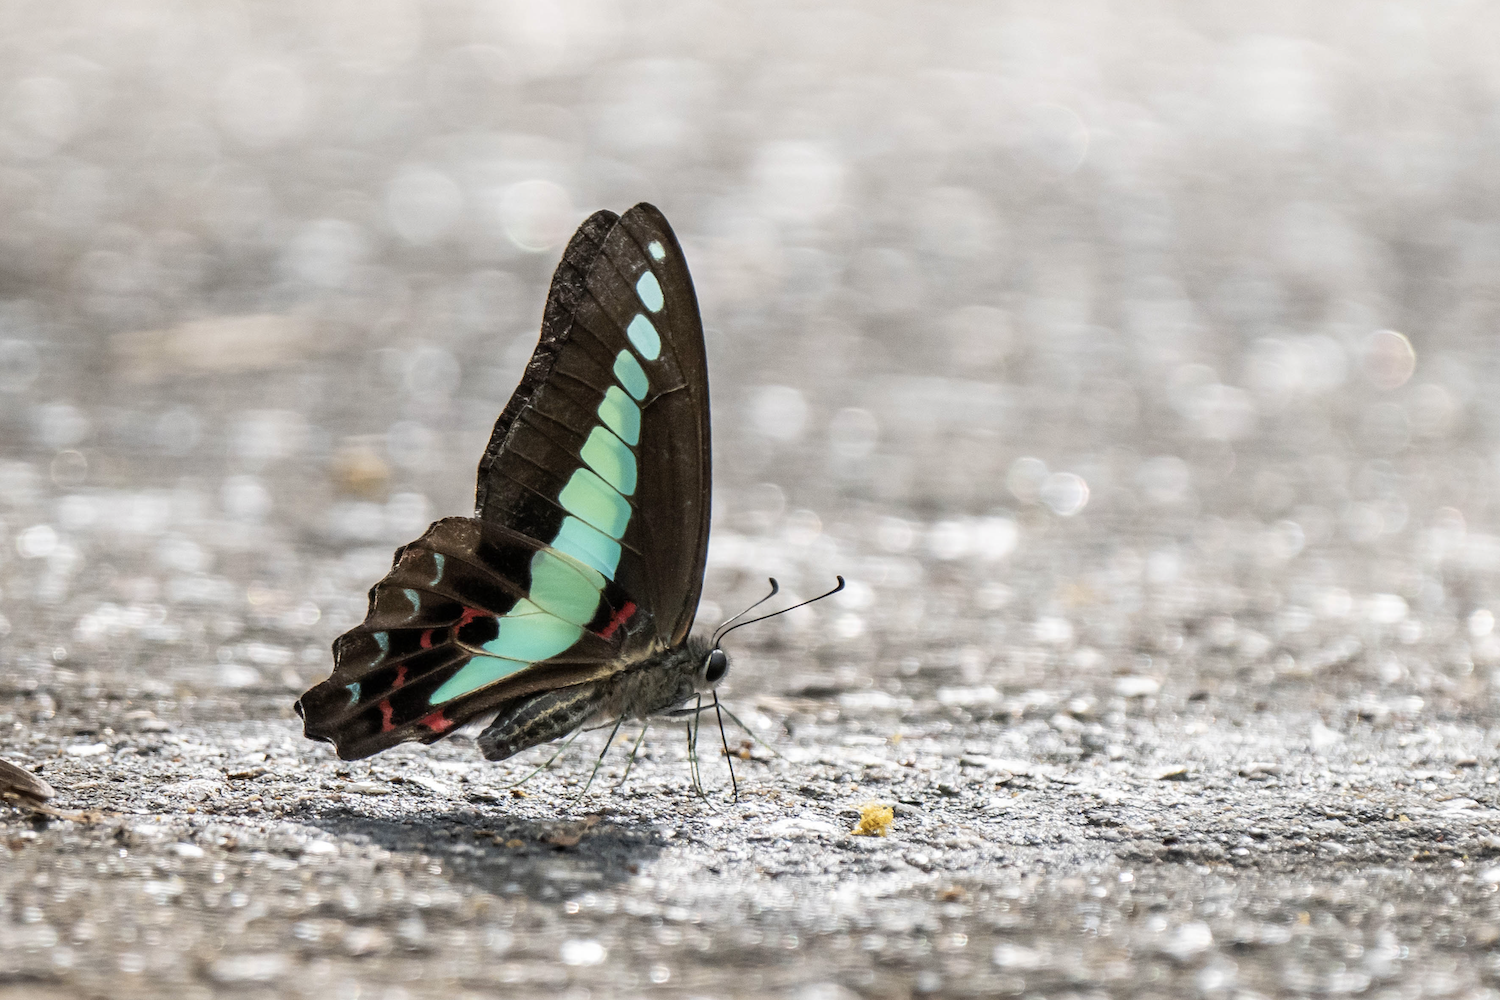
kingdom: Fungi
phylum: Ascomycota
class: Sordariomycetes
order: Microascales
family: Microascaceae
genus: Graphium
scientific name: Graphium sarpedon
